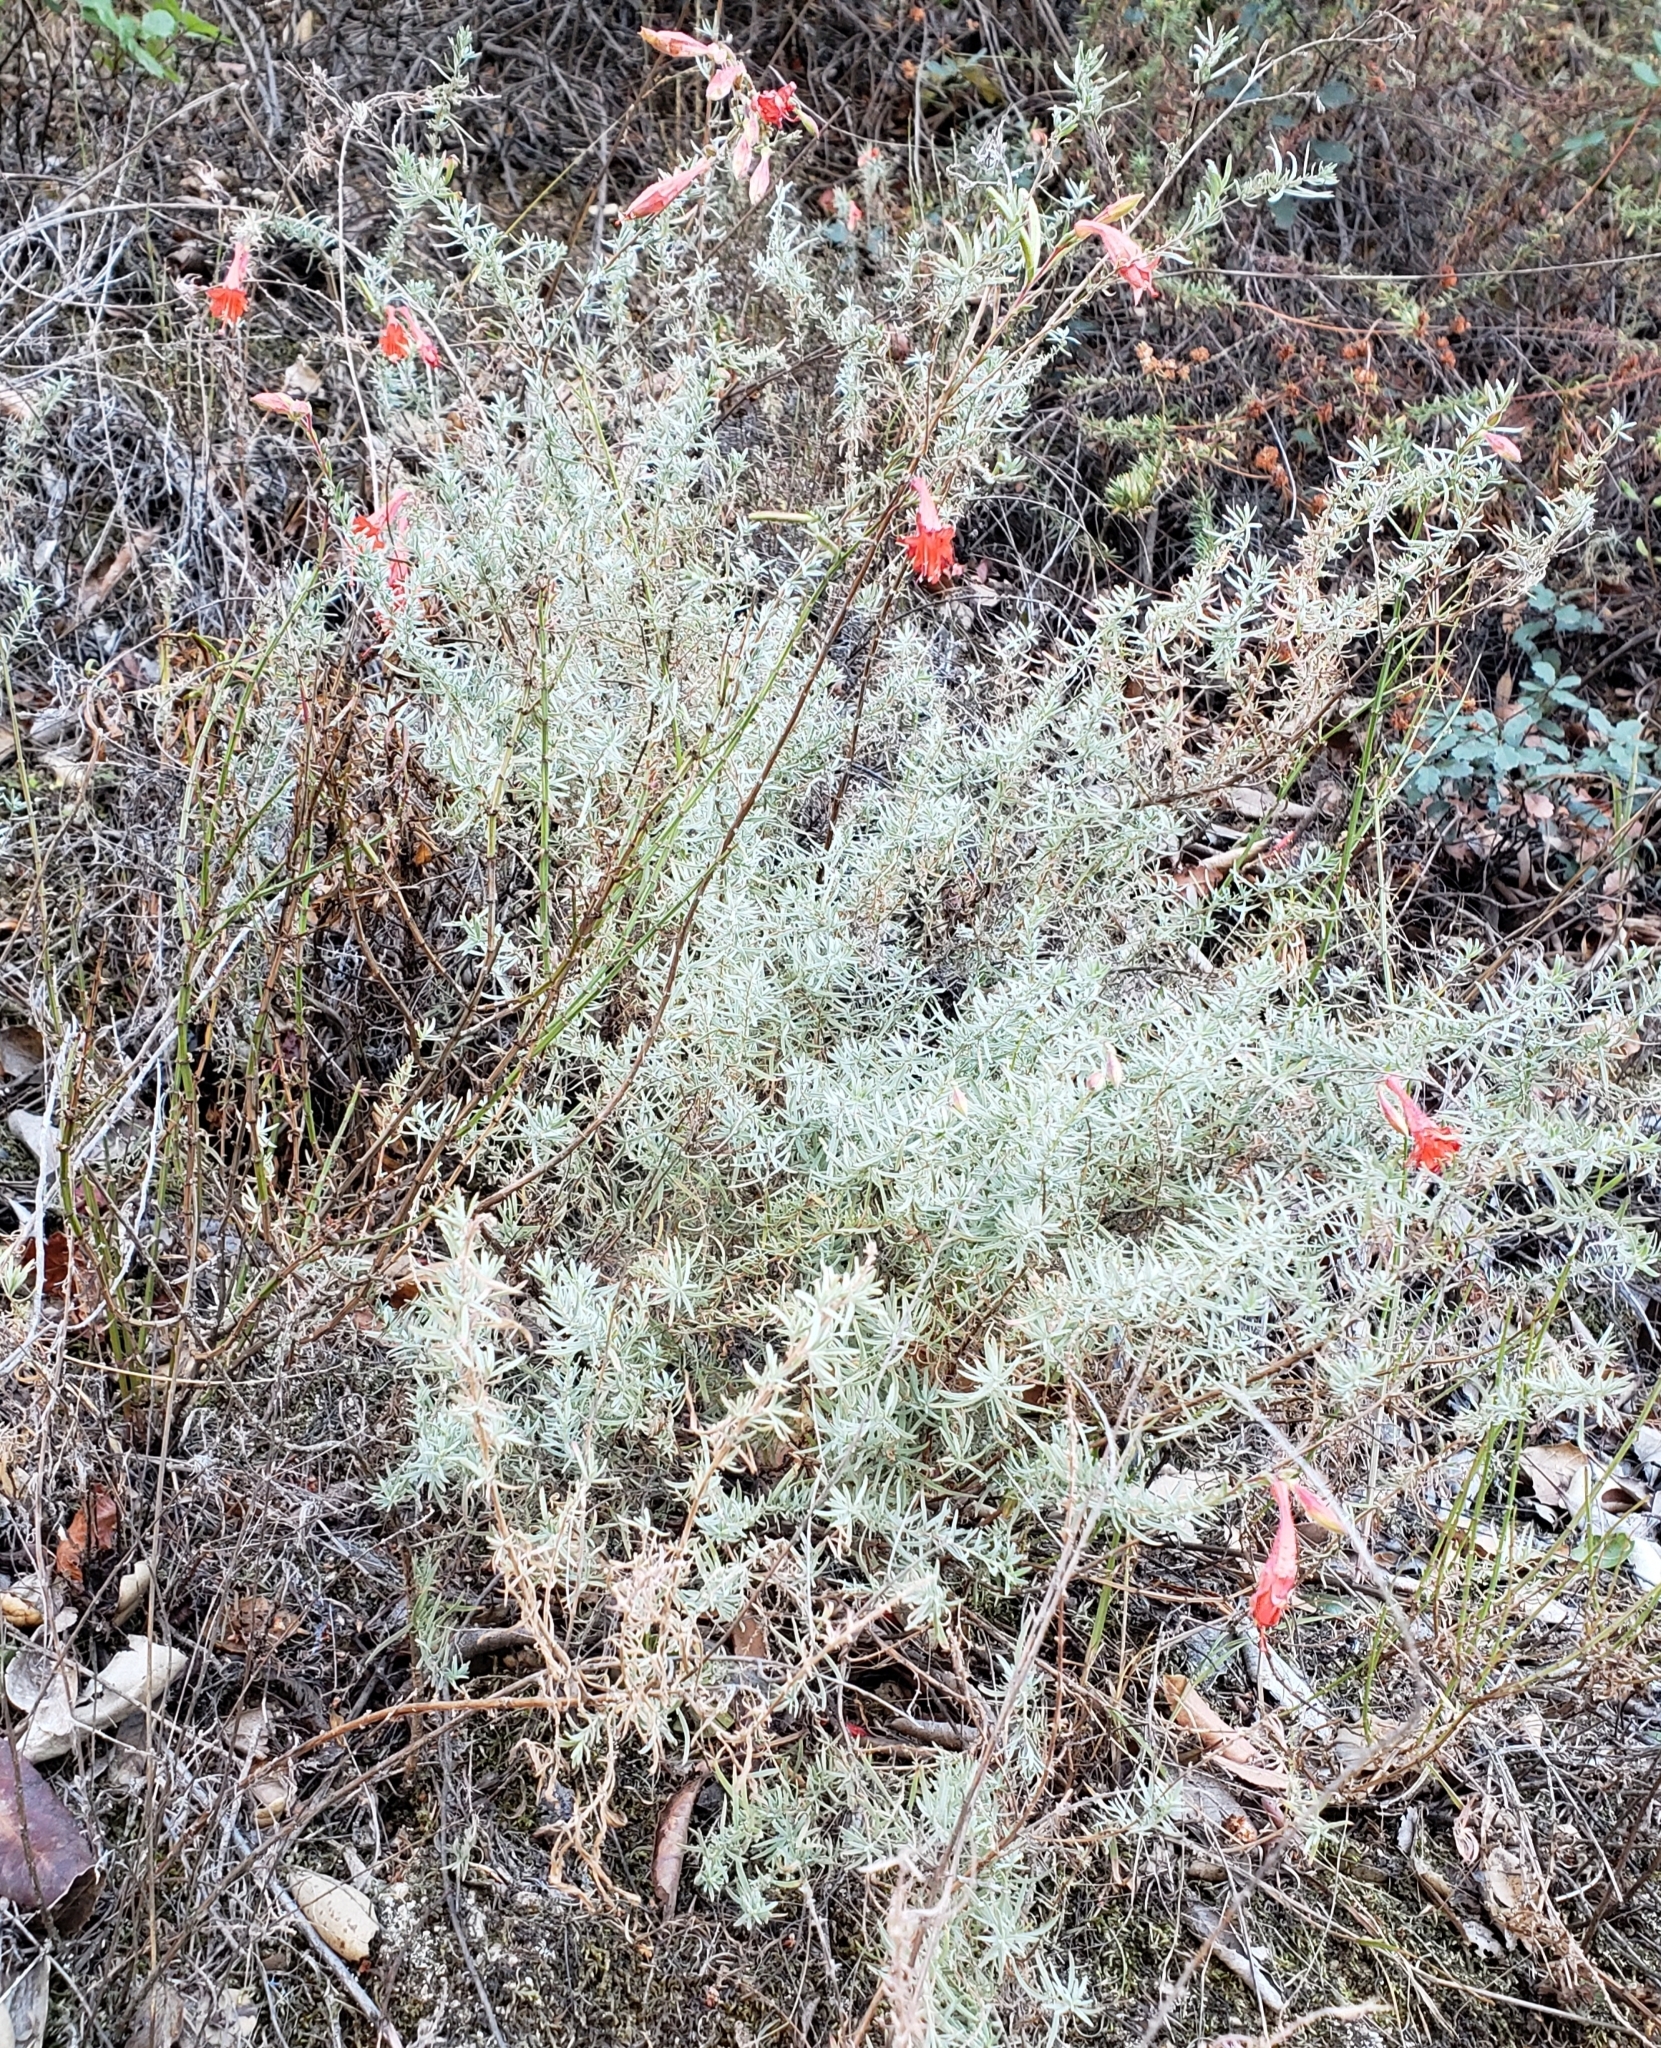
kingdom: Plantae
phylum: Tracheophyta
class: Magnoliopsida
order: Myrtales
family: Onagraceae
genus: Epilobium
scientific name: Epilobium canum
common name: California-fuchsia
